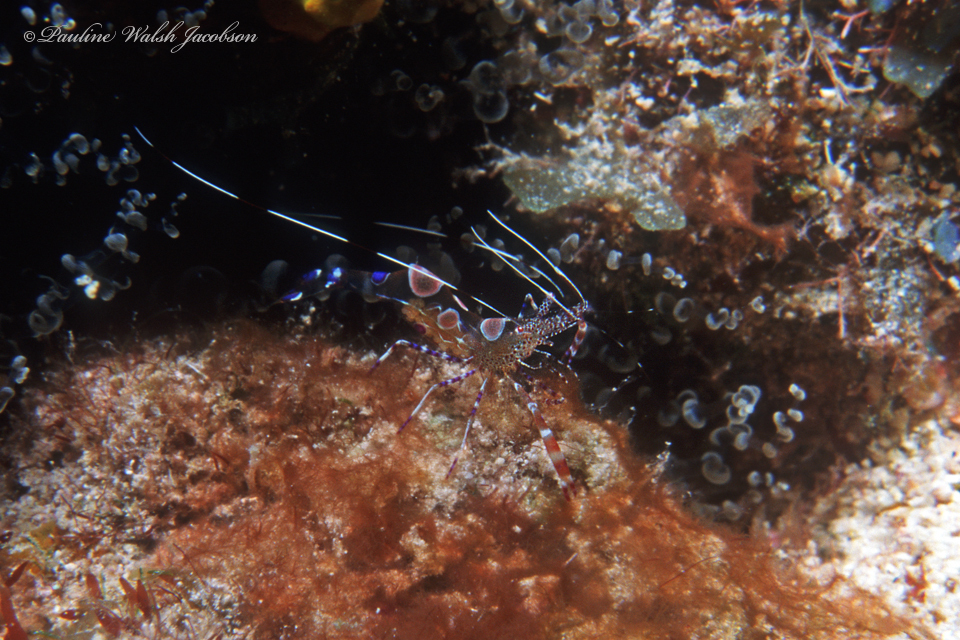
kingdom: Animalia
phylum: Arthropoda
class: Malacostraca
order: Decapoda
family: Palaemonidae
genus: Periclimenes
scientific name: Periclimenes yucatanicus
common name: Spotted cleaning shrimp
